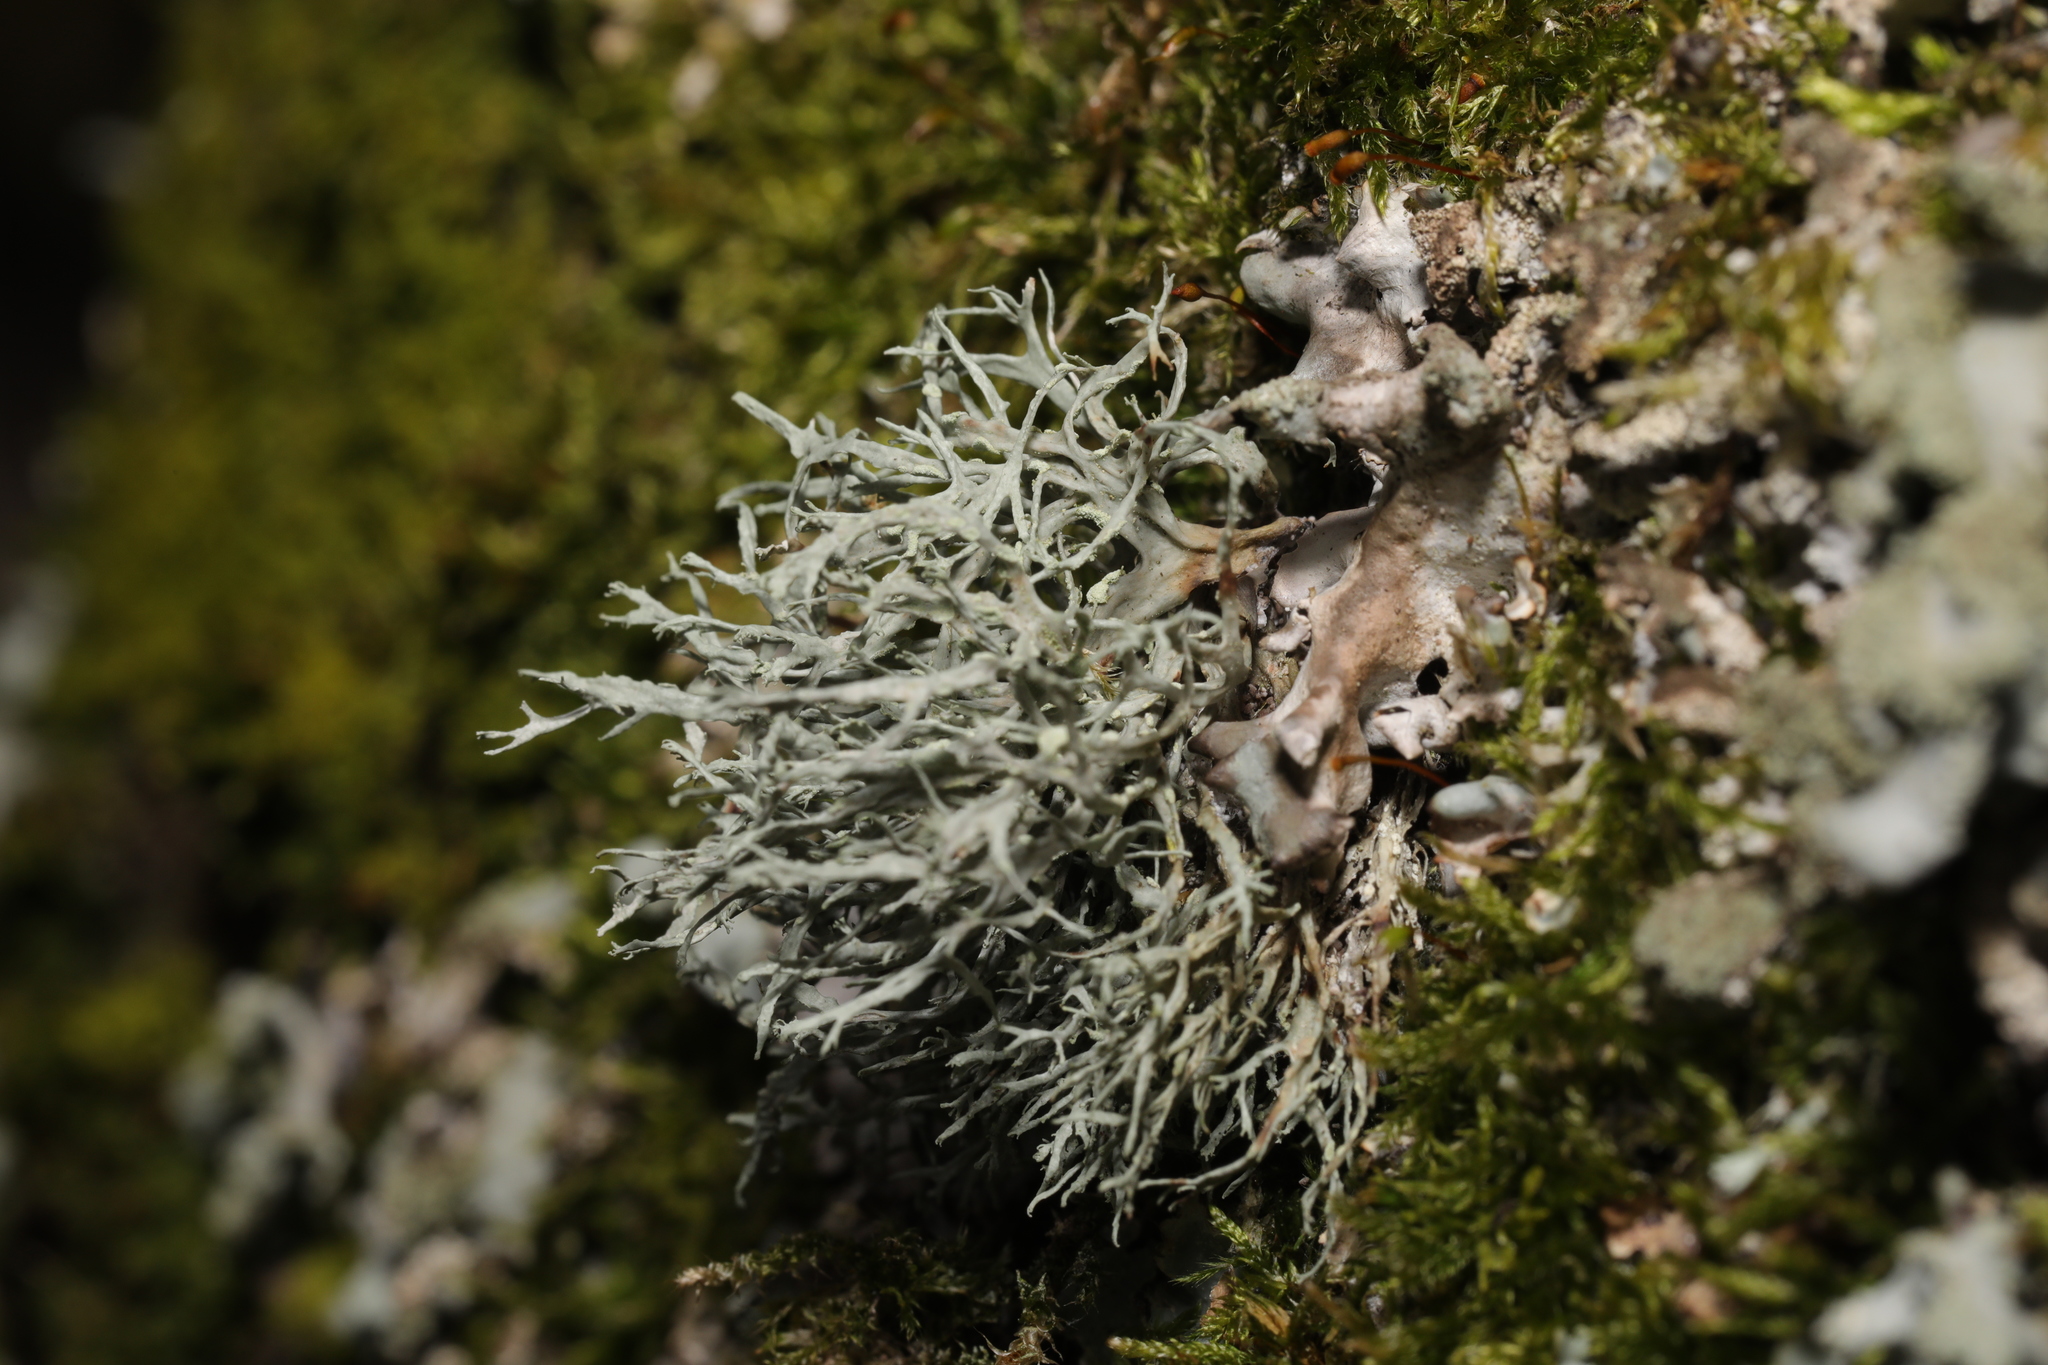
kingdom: Fungi
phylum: Ascomycota
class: Lecanoromycetes
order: Lecanorales
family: Ramalinaceae
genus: Ramalina
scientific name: Ramalina farinacea
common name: Farinose cartilage lichen
